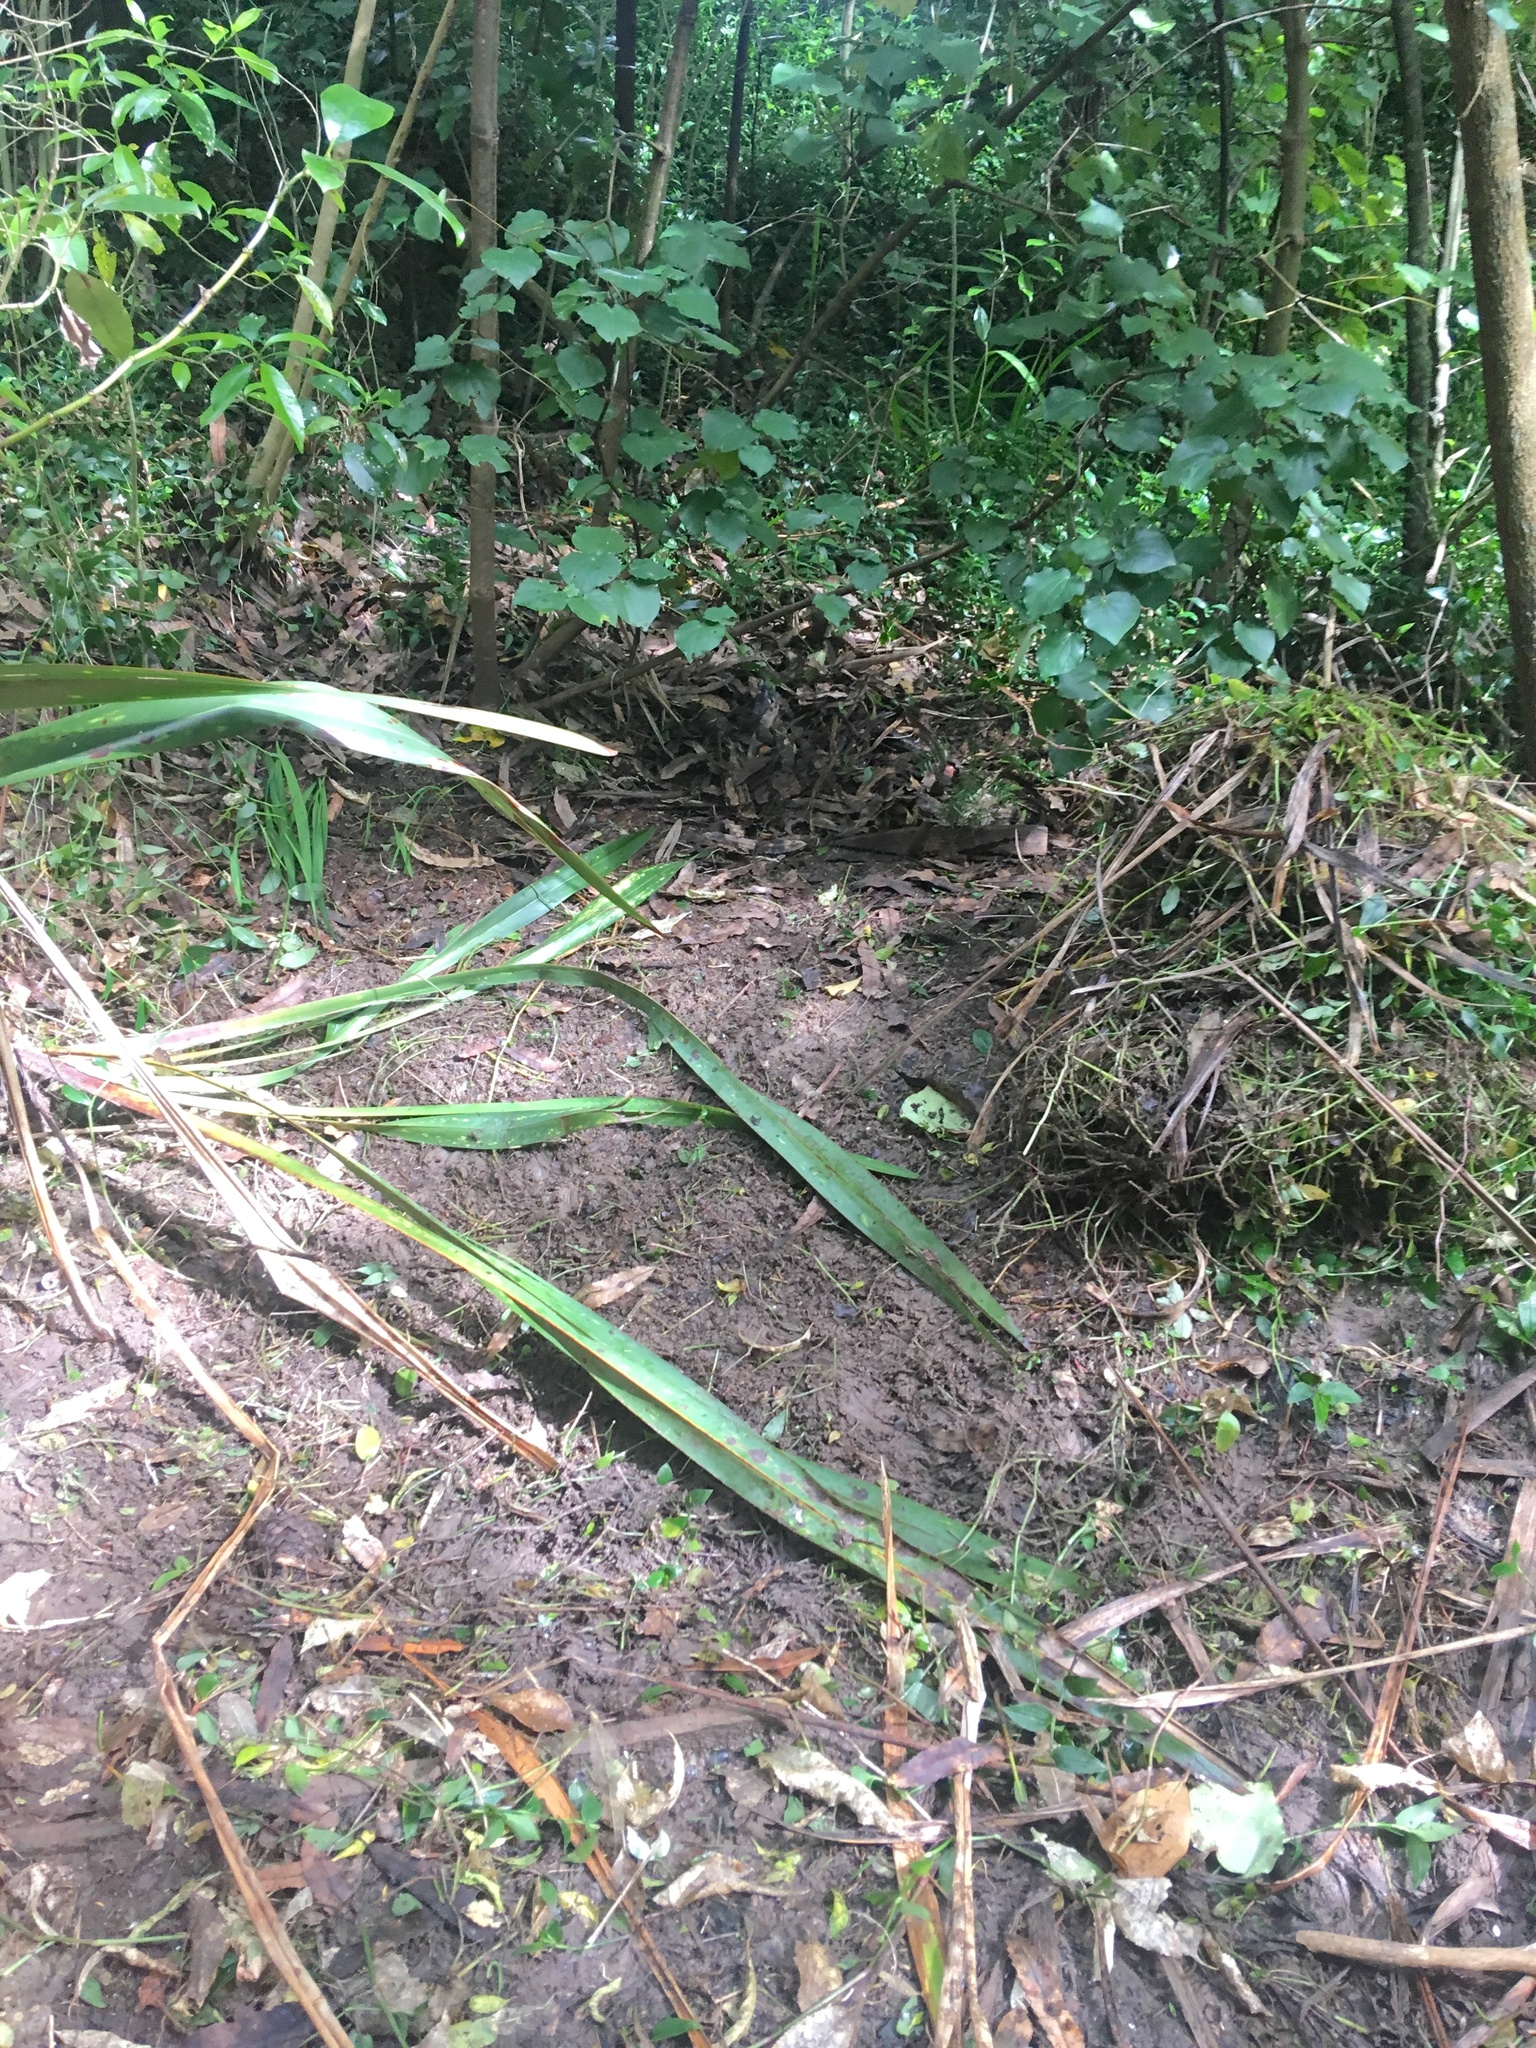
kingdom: Plantae
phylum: Tracheophyta
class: Magnoliopsida
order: Piperales
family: Piperaceae
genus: Macropiper
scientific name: Macropiper excelsum
